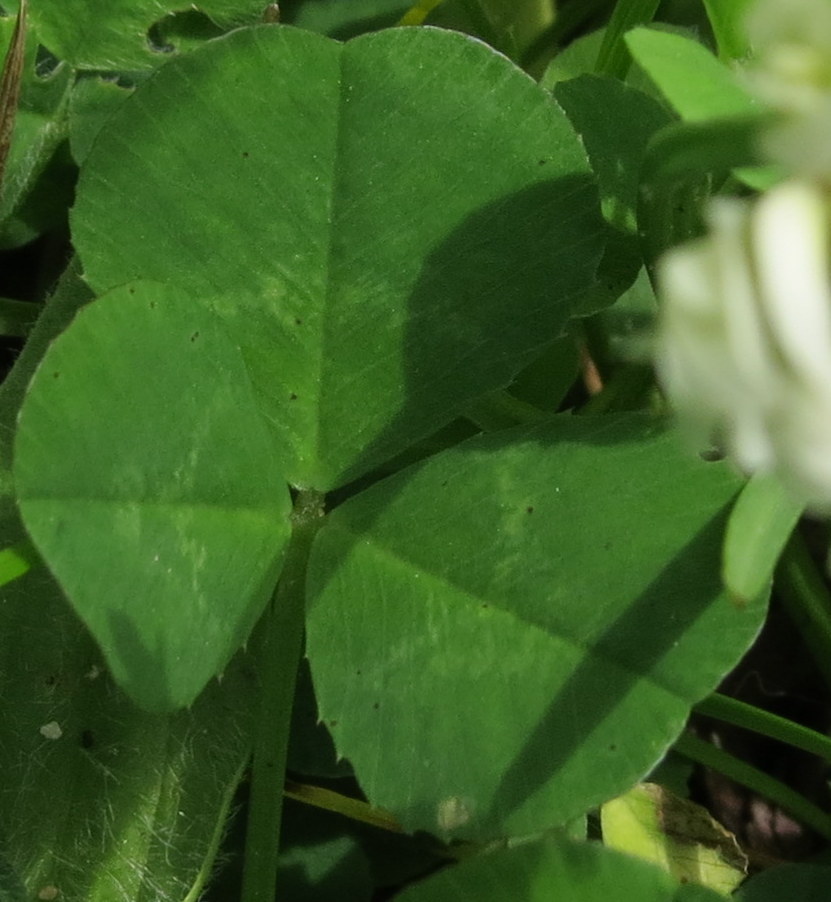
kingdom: Plantae
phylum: Tracheophyta
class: Magnoliopsida
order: Fabales
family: Fabaceae
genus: Trifolium
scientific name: Trifolium repens
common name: White clover
